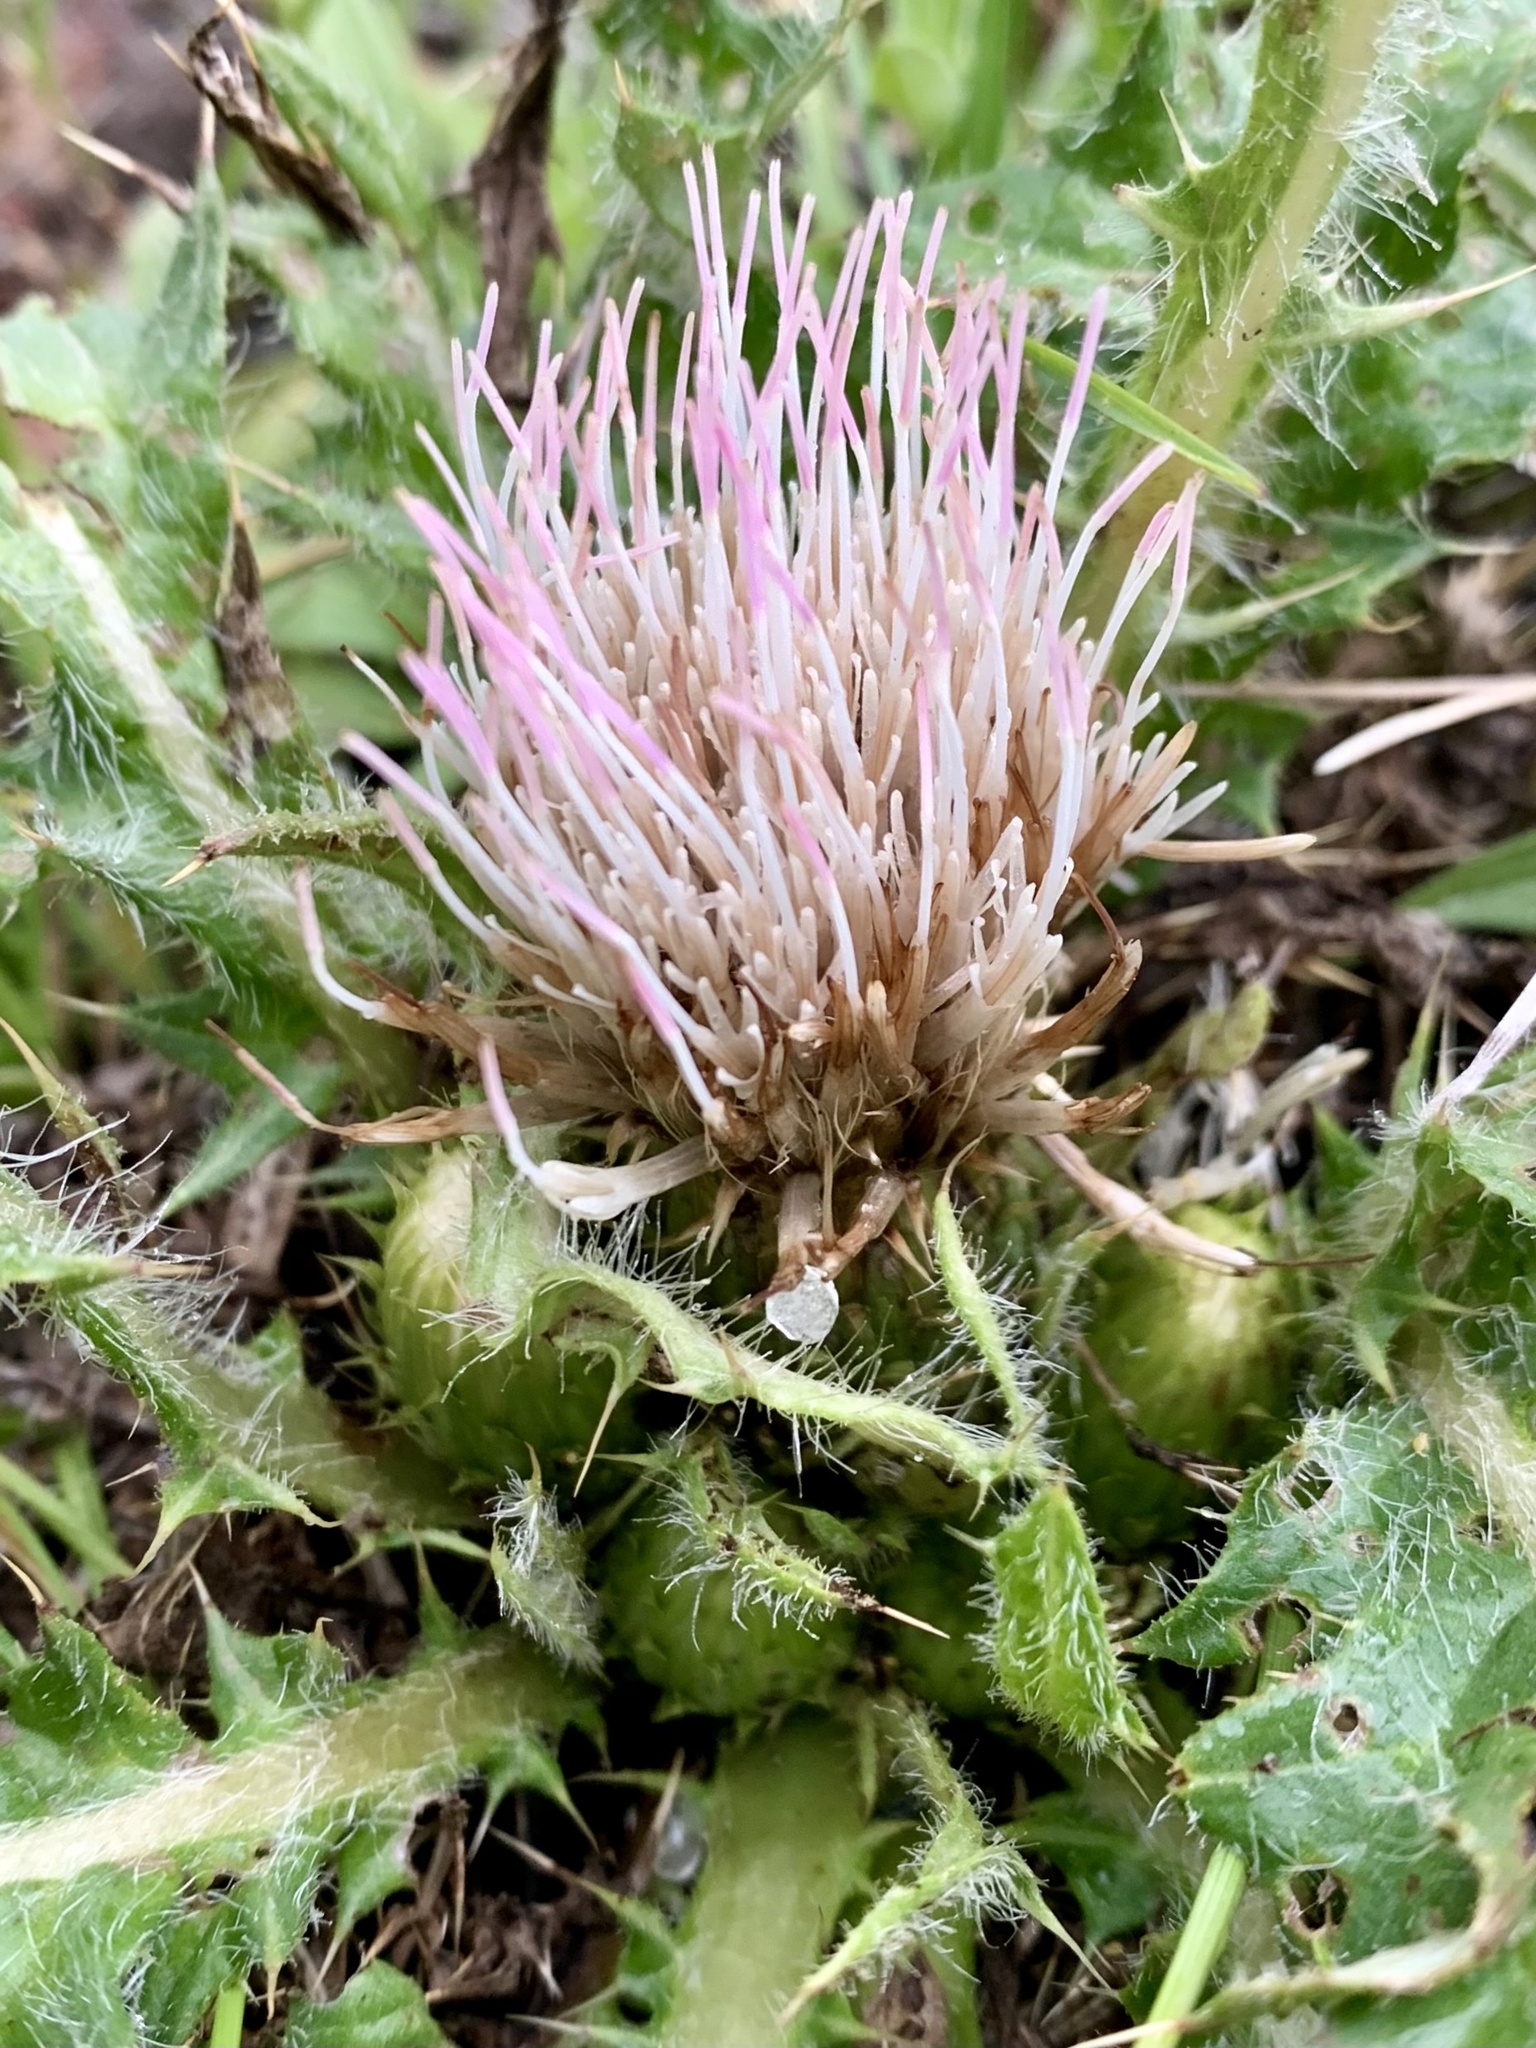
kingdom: Plantae
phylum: Tracheophyta
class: Magnoliopsida
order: Asterales
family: Asteraceae
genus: Cirsium
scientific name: Cirsium scariosum
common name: Meadow thistle
